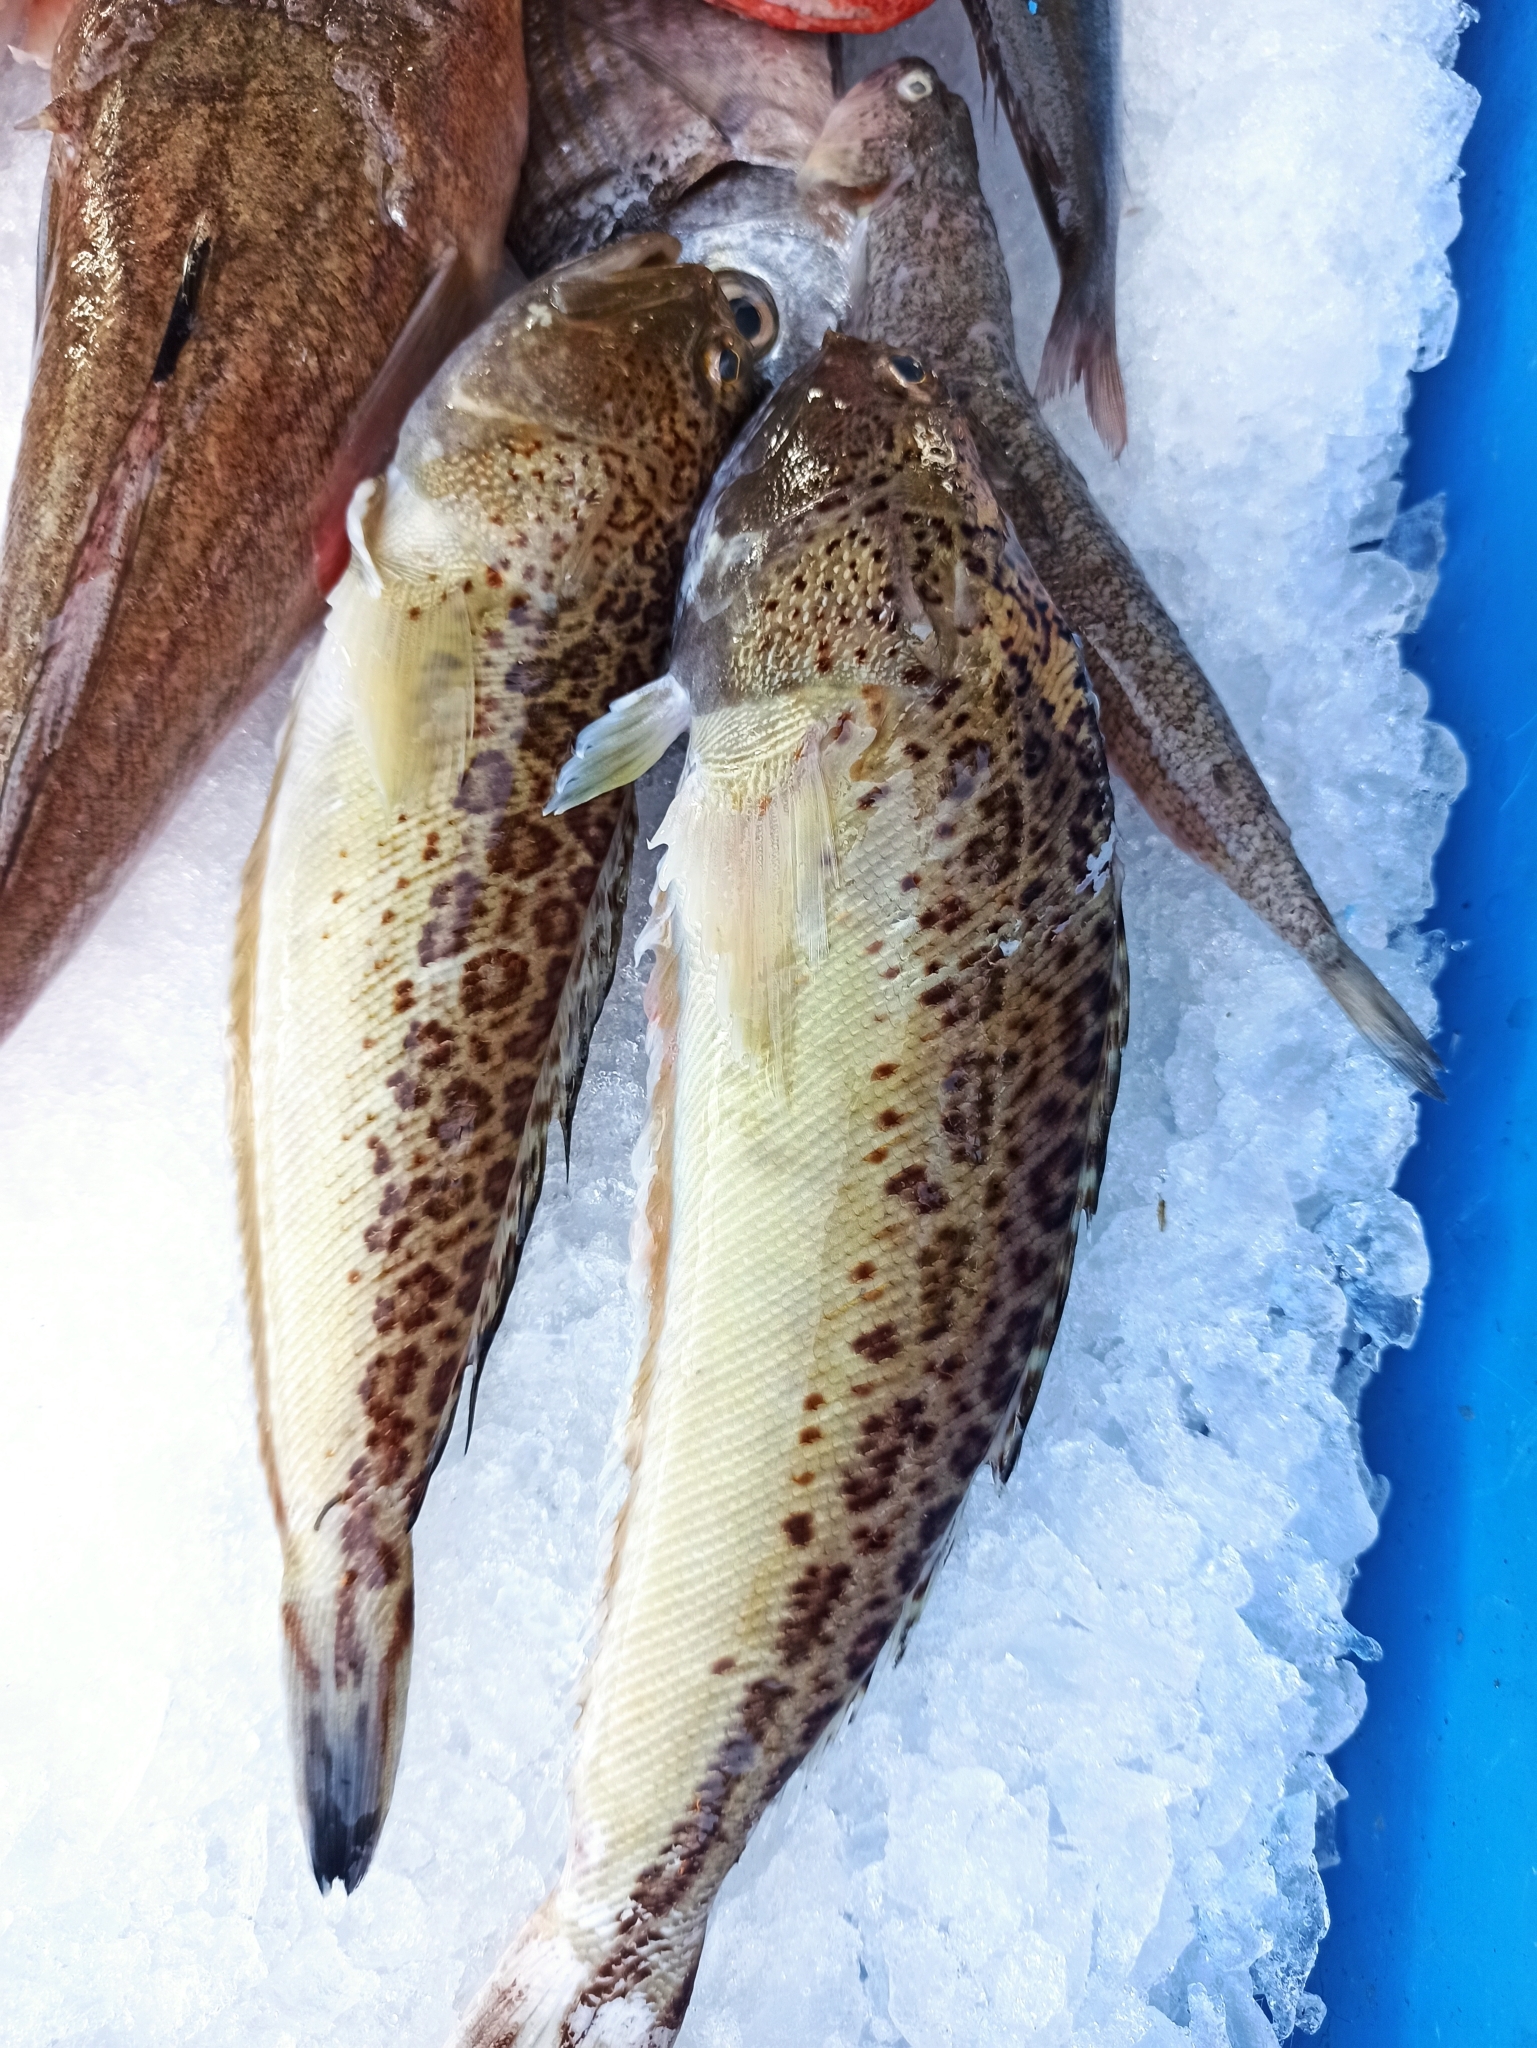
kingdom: Animalia
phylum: Chordata
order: Perciformes
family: Trachinidae
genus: Trachinus
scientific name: Trachinus radiatus
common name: Starry weever
